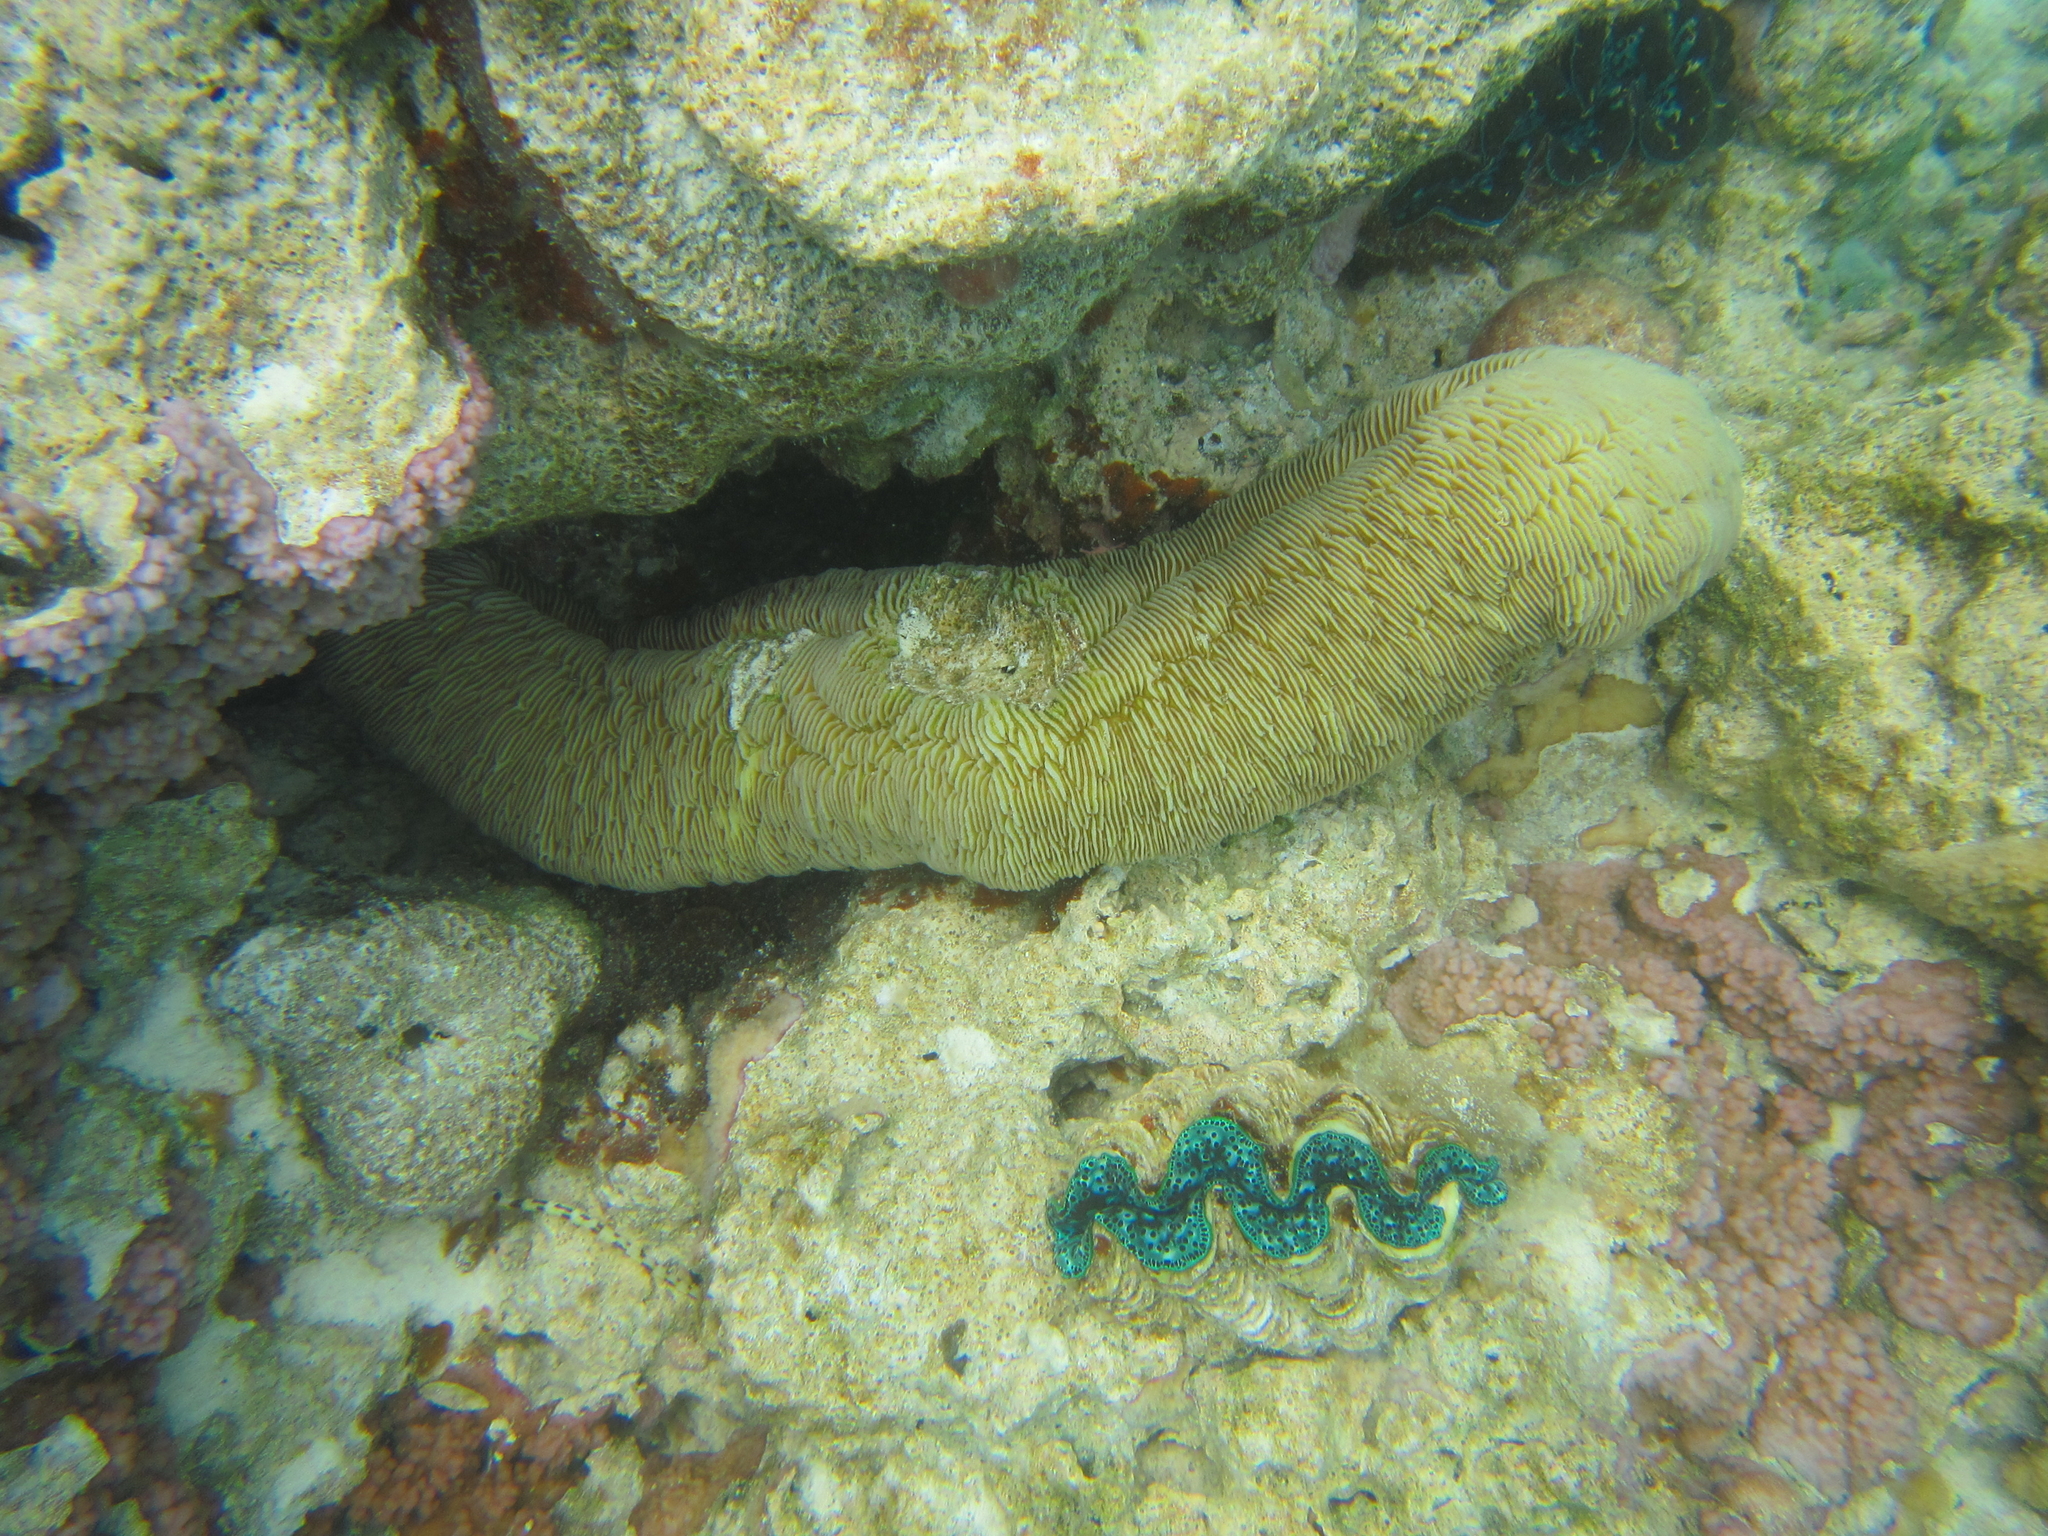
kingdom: Animalia
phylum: Cnidaria
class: Anthozoa
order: Scleractinia
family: Fungiidae
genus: Herpolitha
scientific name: Herpolitha limax
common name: Striate boomerang coral
